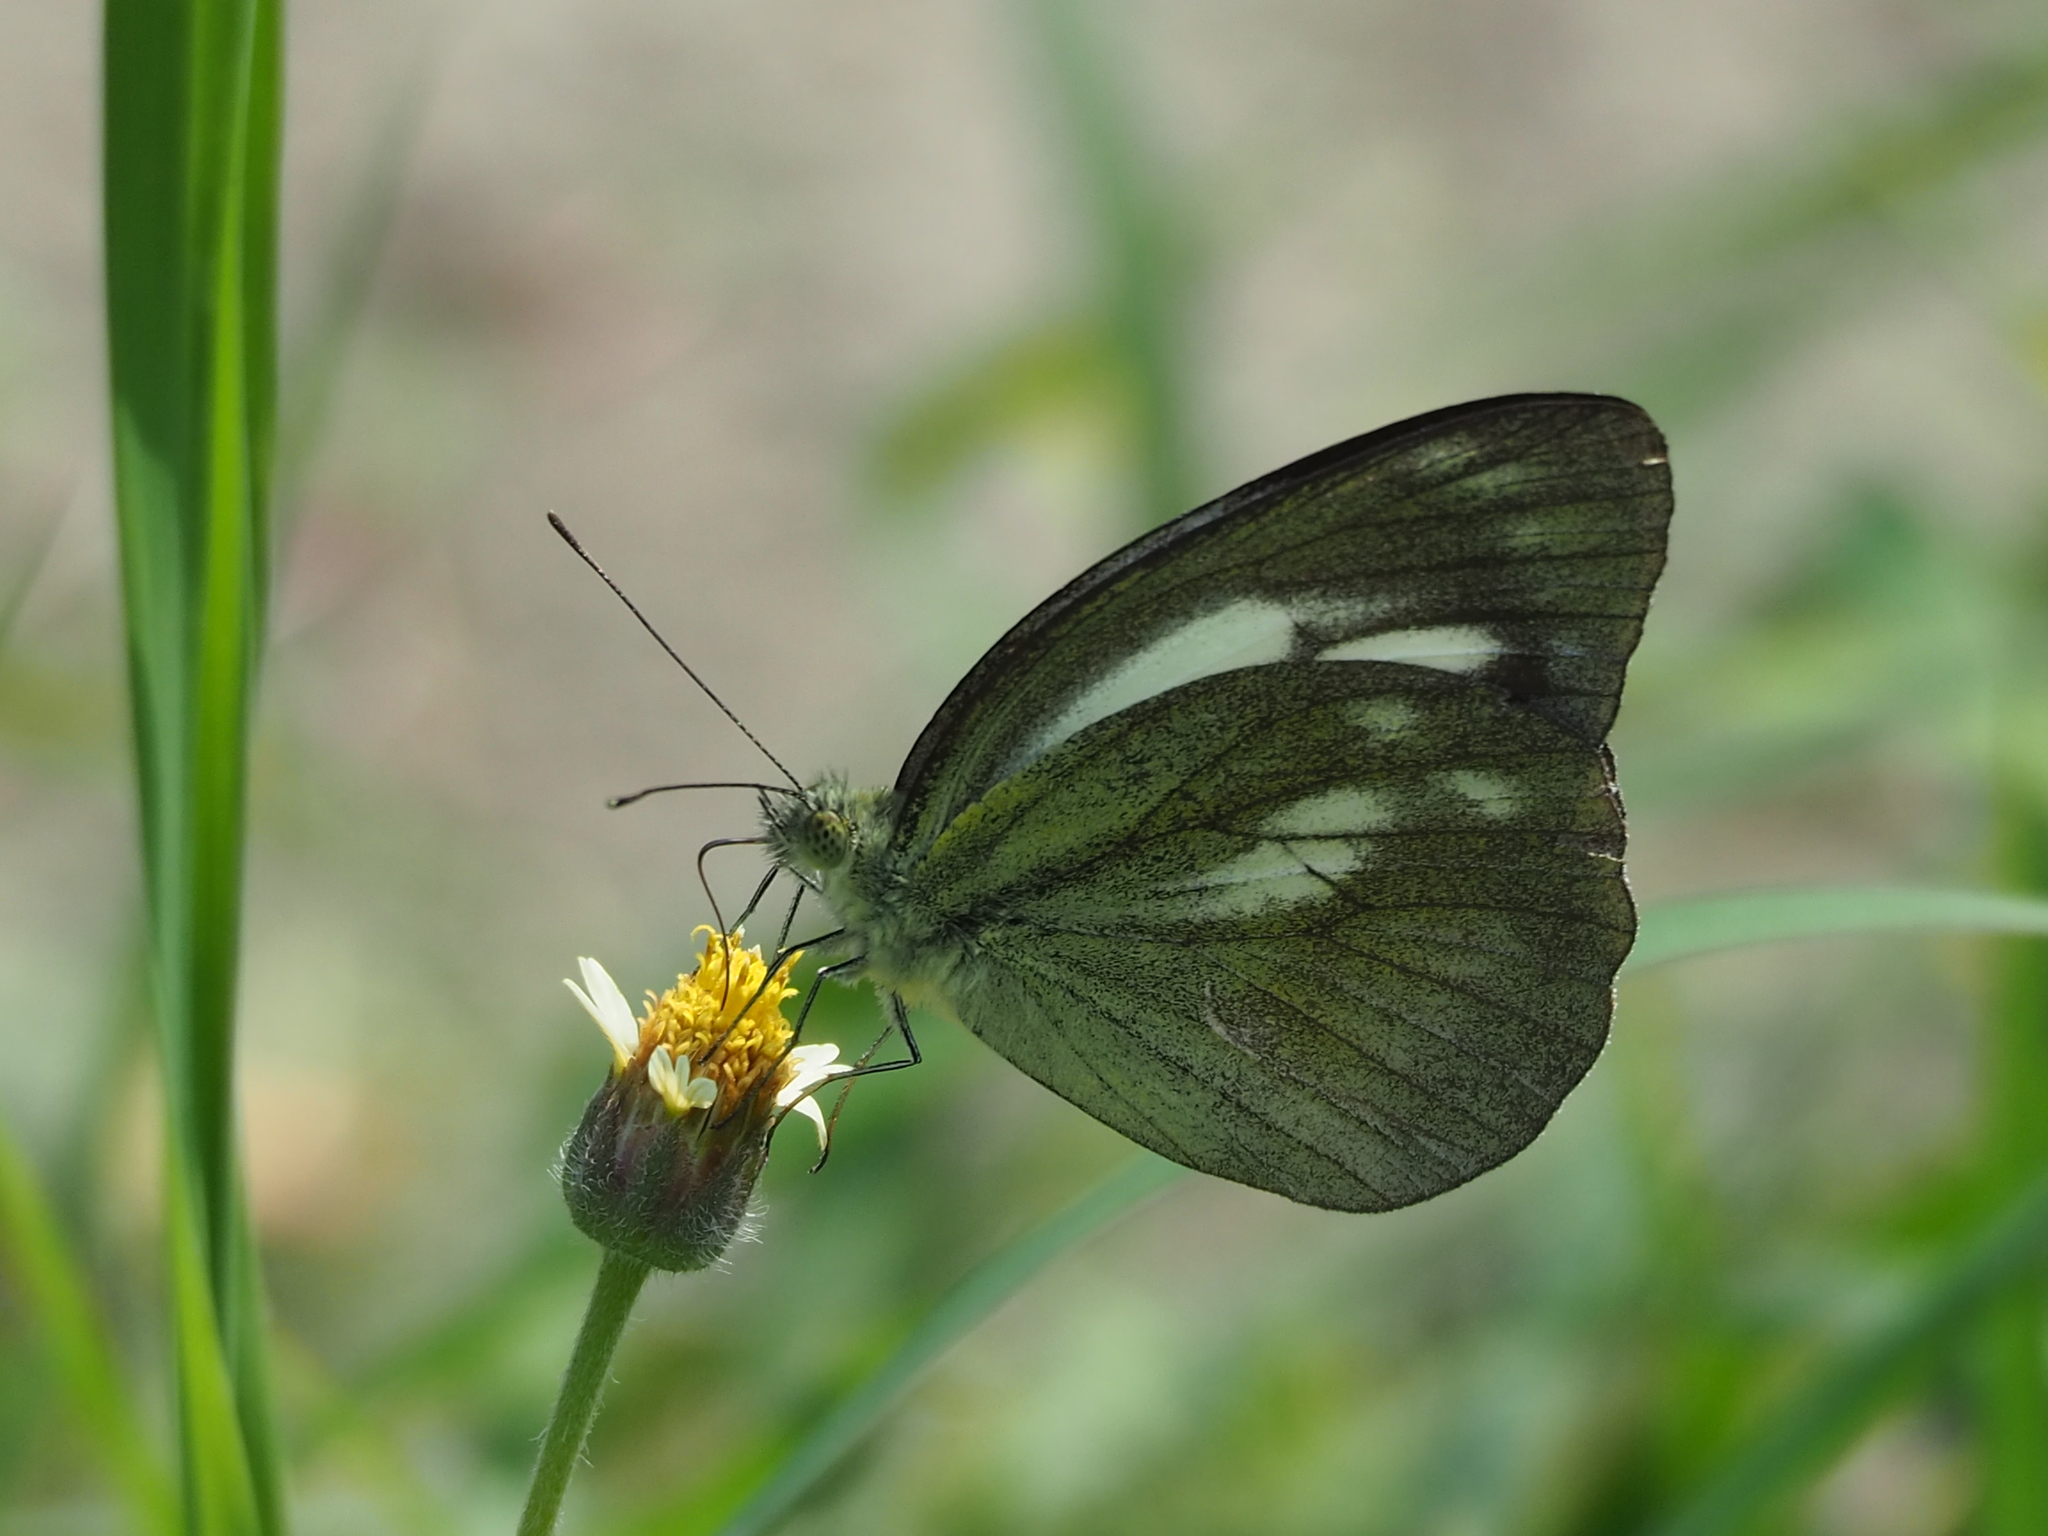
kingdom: Animalia
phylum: Arthropoda
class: Insecta
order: Lepidoptera
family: Pieridae
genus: Cepora
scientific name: Cepora nadina
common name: Lesser gull
